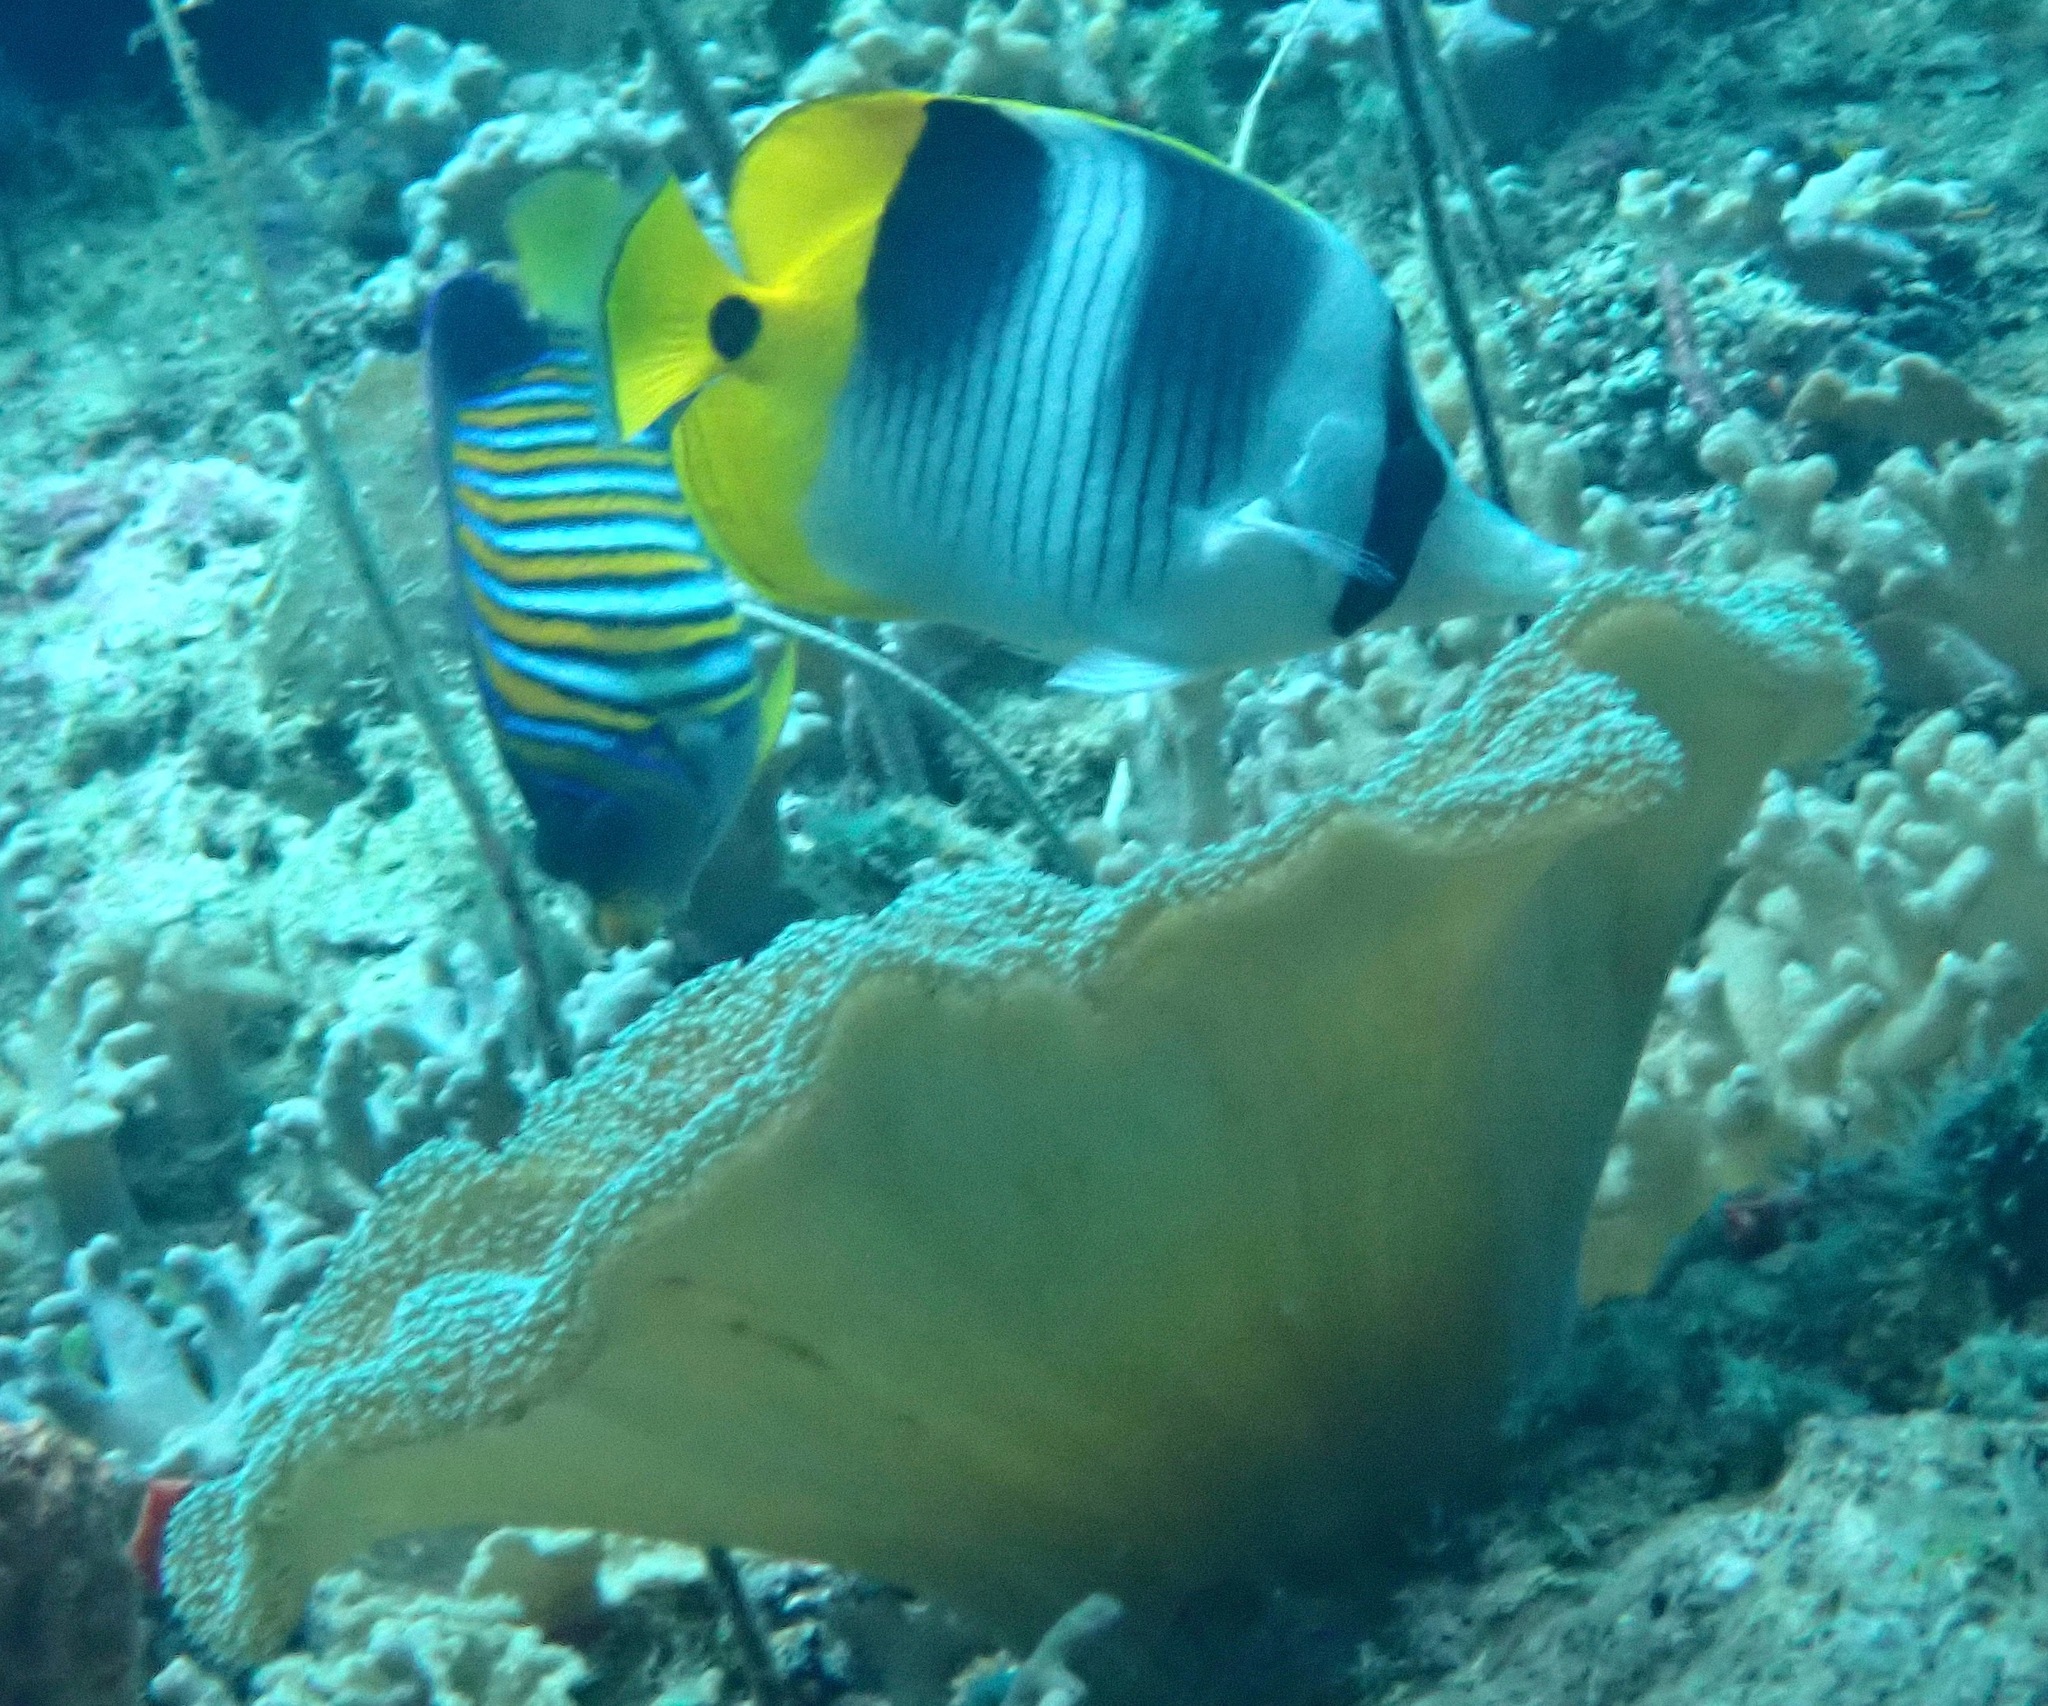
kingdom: Animalia
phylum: Chordata
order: Perciformes
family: Chaetodontidae
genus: Chaetodon
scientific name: Chaetodon ulietensis
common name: Pacific double-saddle butterflyfish
